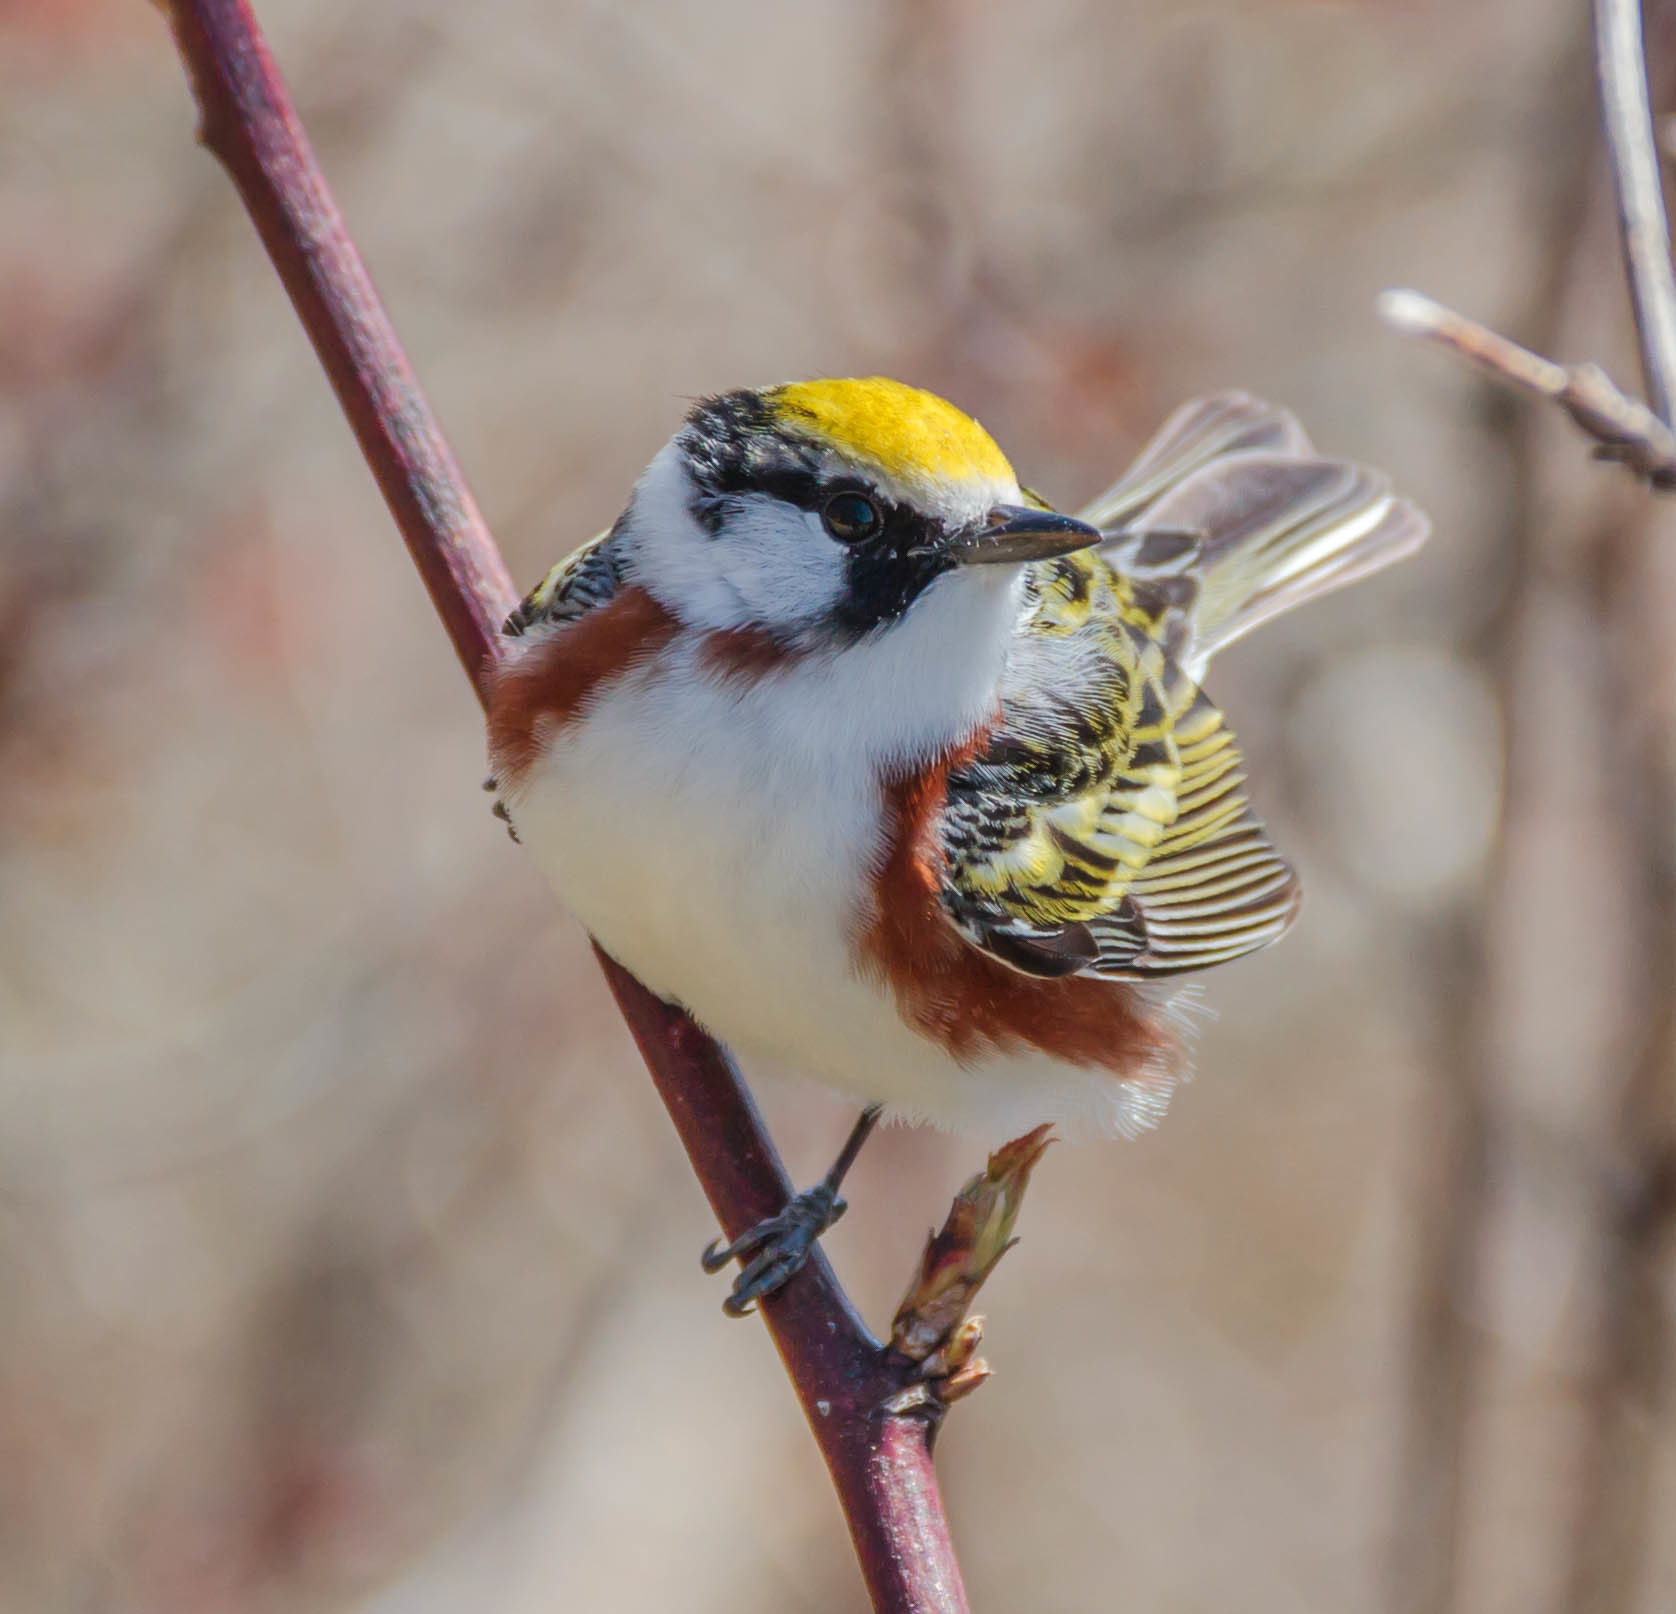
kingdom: Animalia
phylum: Chordata
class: Aves
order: Passeriformes
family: Parulidae
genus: Setophaga
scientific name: Setophaga pensylvanica
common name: Chestnut-sided warbler
